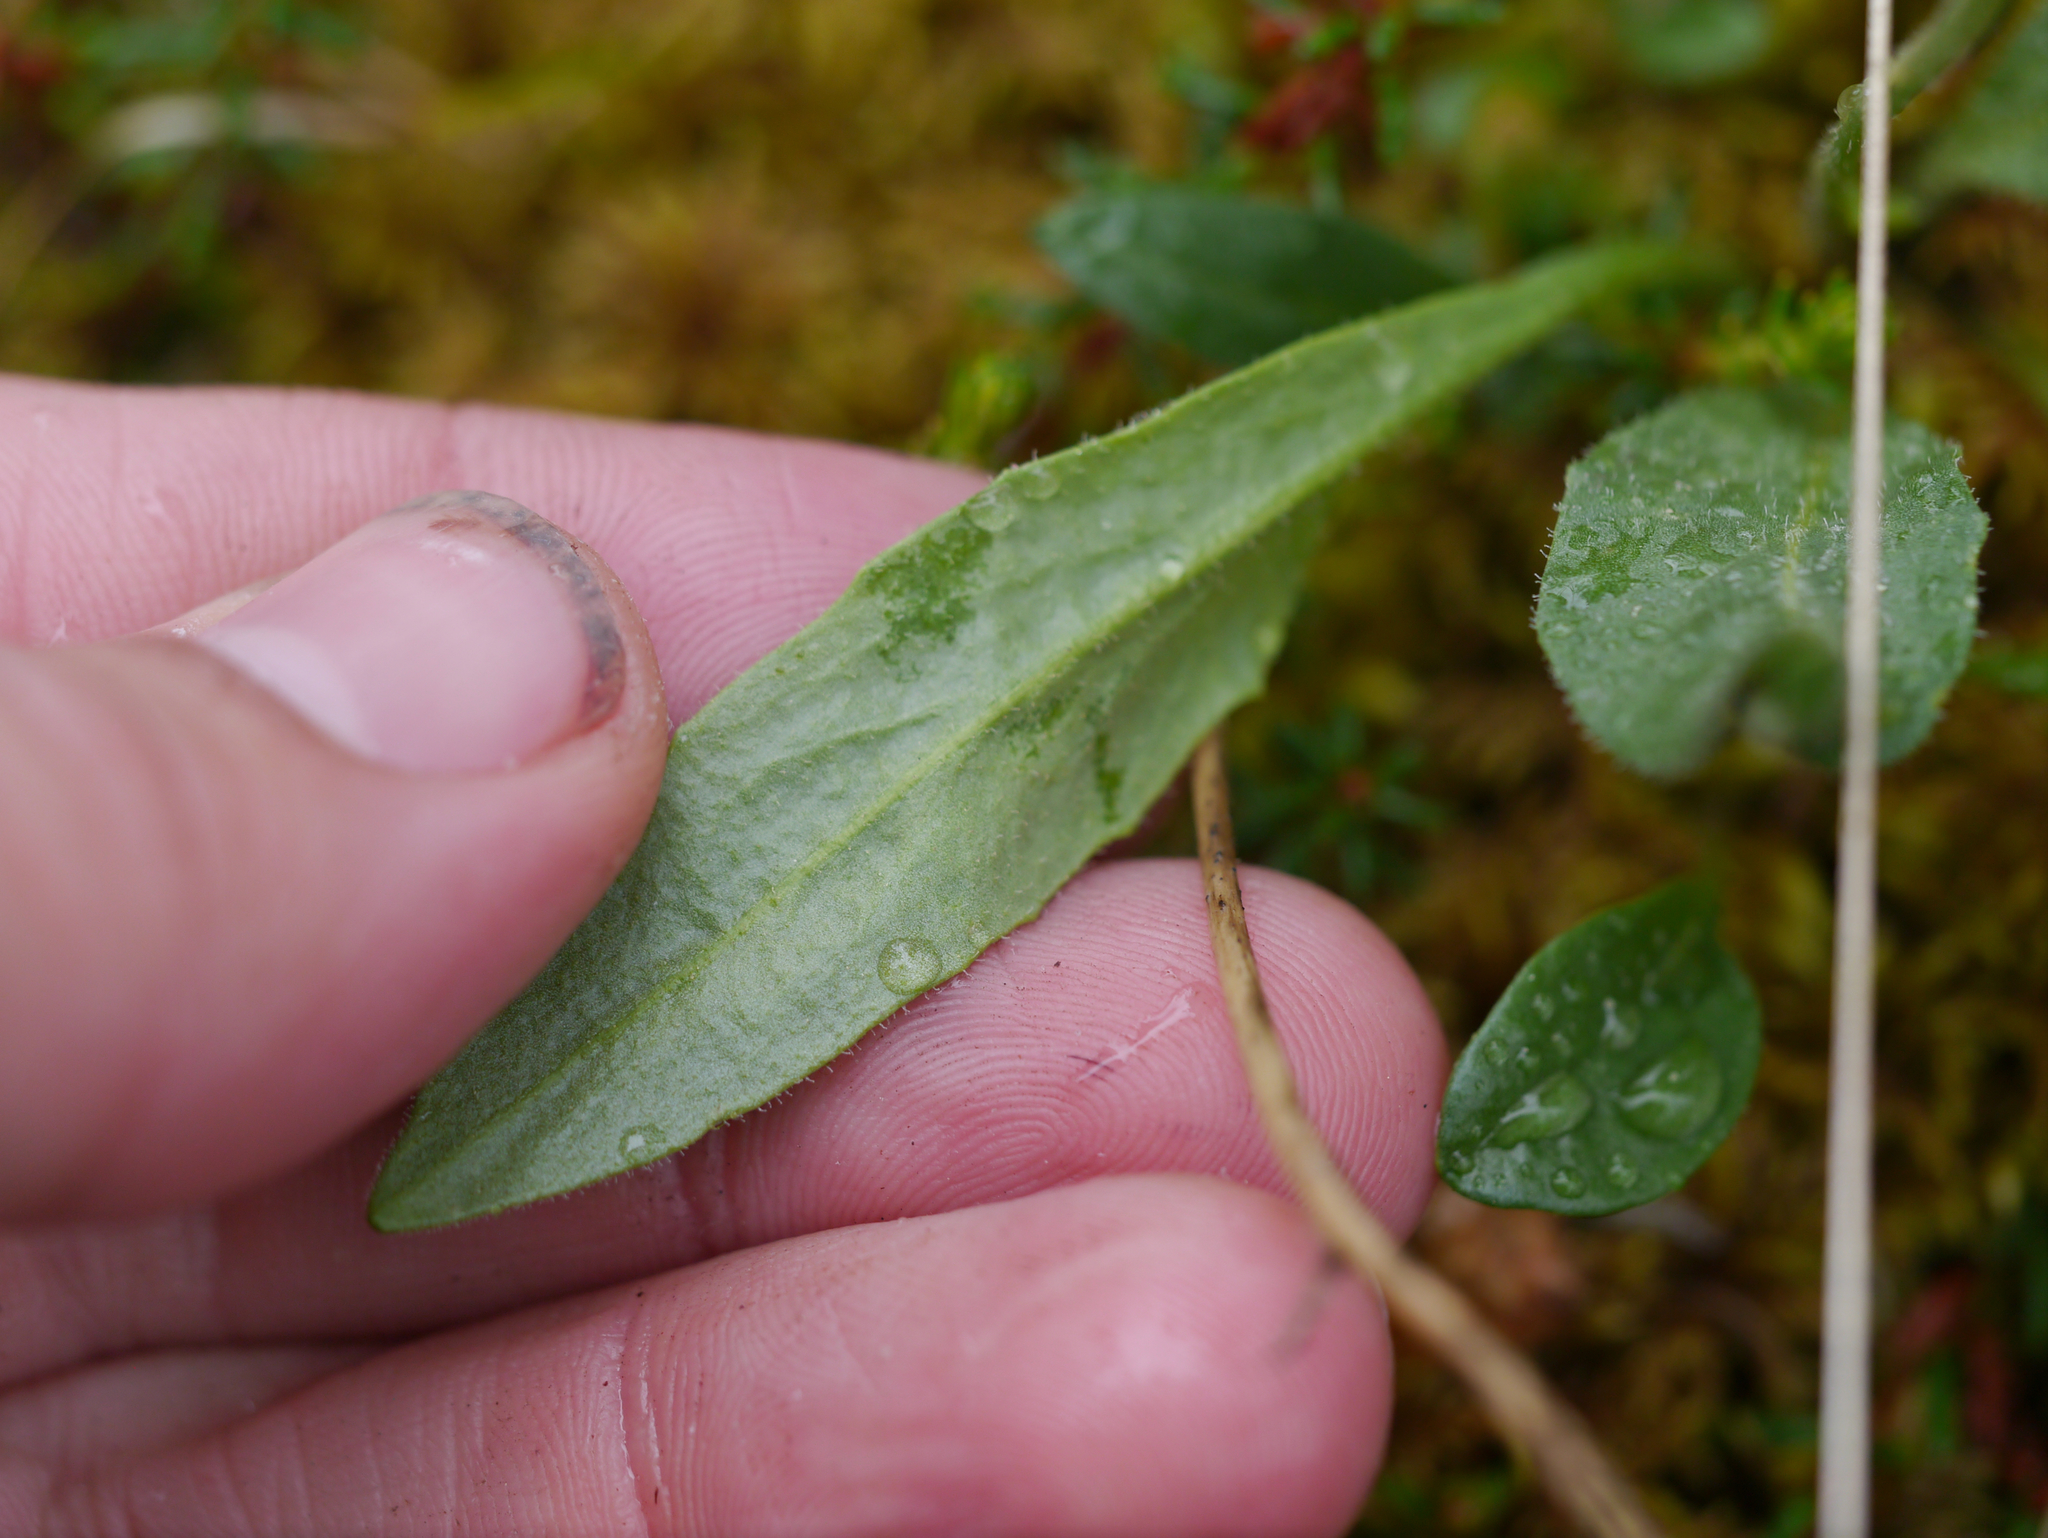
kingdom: Plantae
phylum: Tracheophyta
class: Magnoliopsida
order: Brassicales
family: Brassicaceae
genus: Parrya
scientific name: Parrya nudicaulis
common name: Naked-stemmed false wallflower
